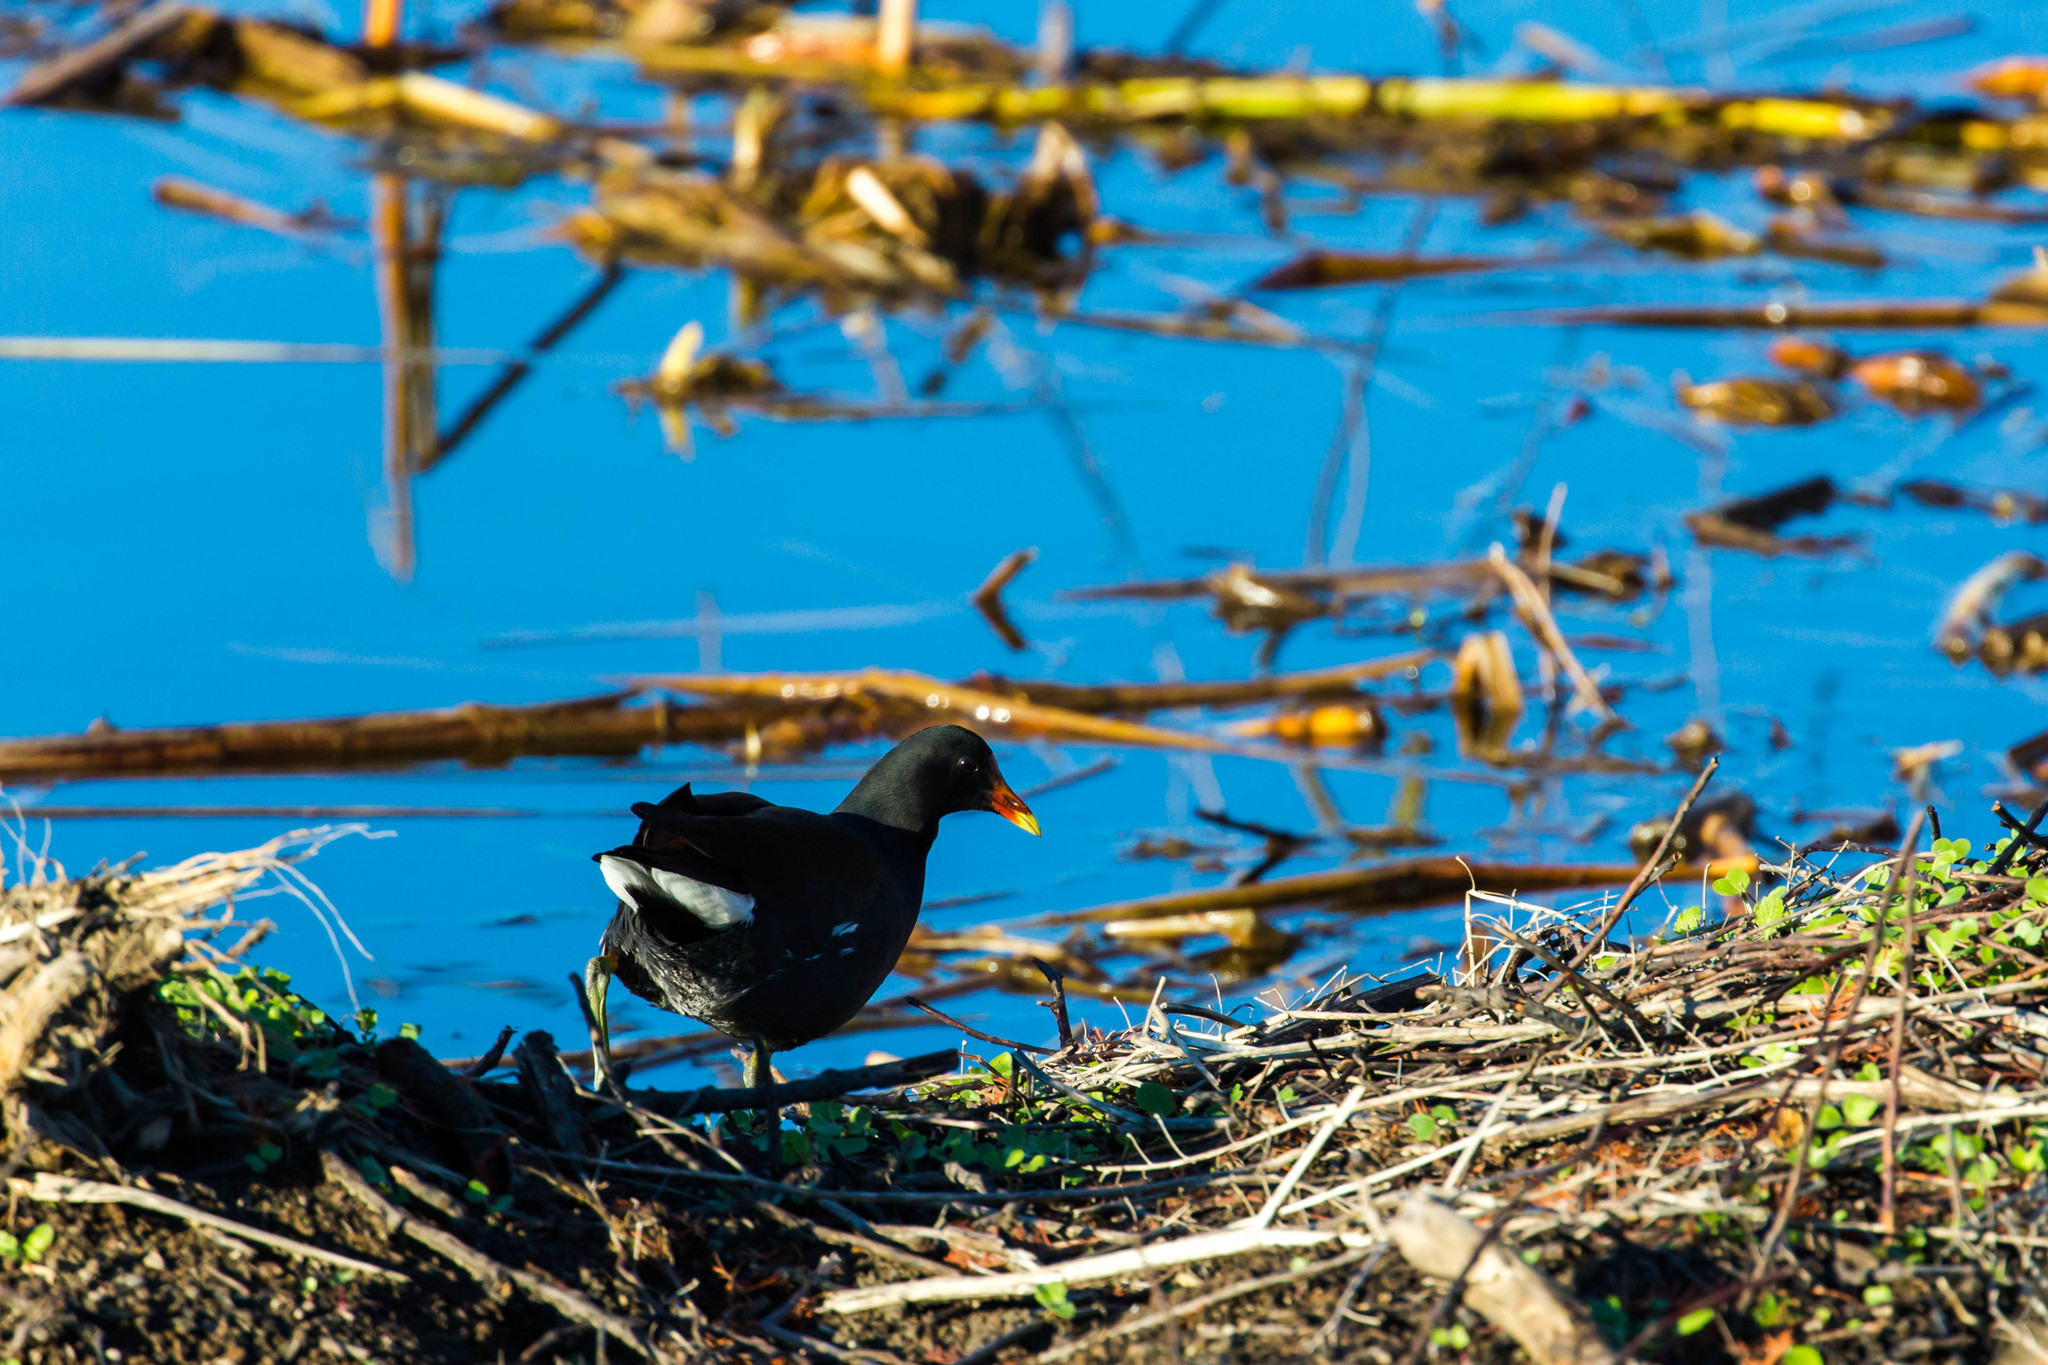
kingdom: Animalia
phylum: Chordata
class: Aves
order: Gruiformes
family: Rallidae
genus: Gallinula
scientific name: Gallinula chloropus
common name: Common moorhen
